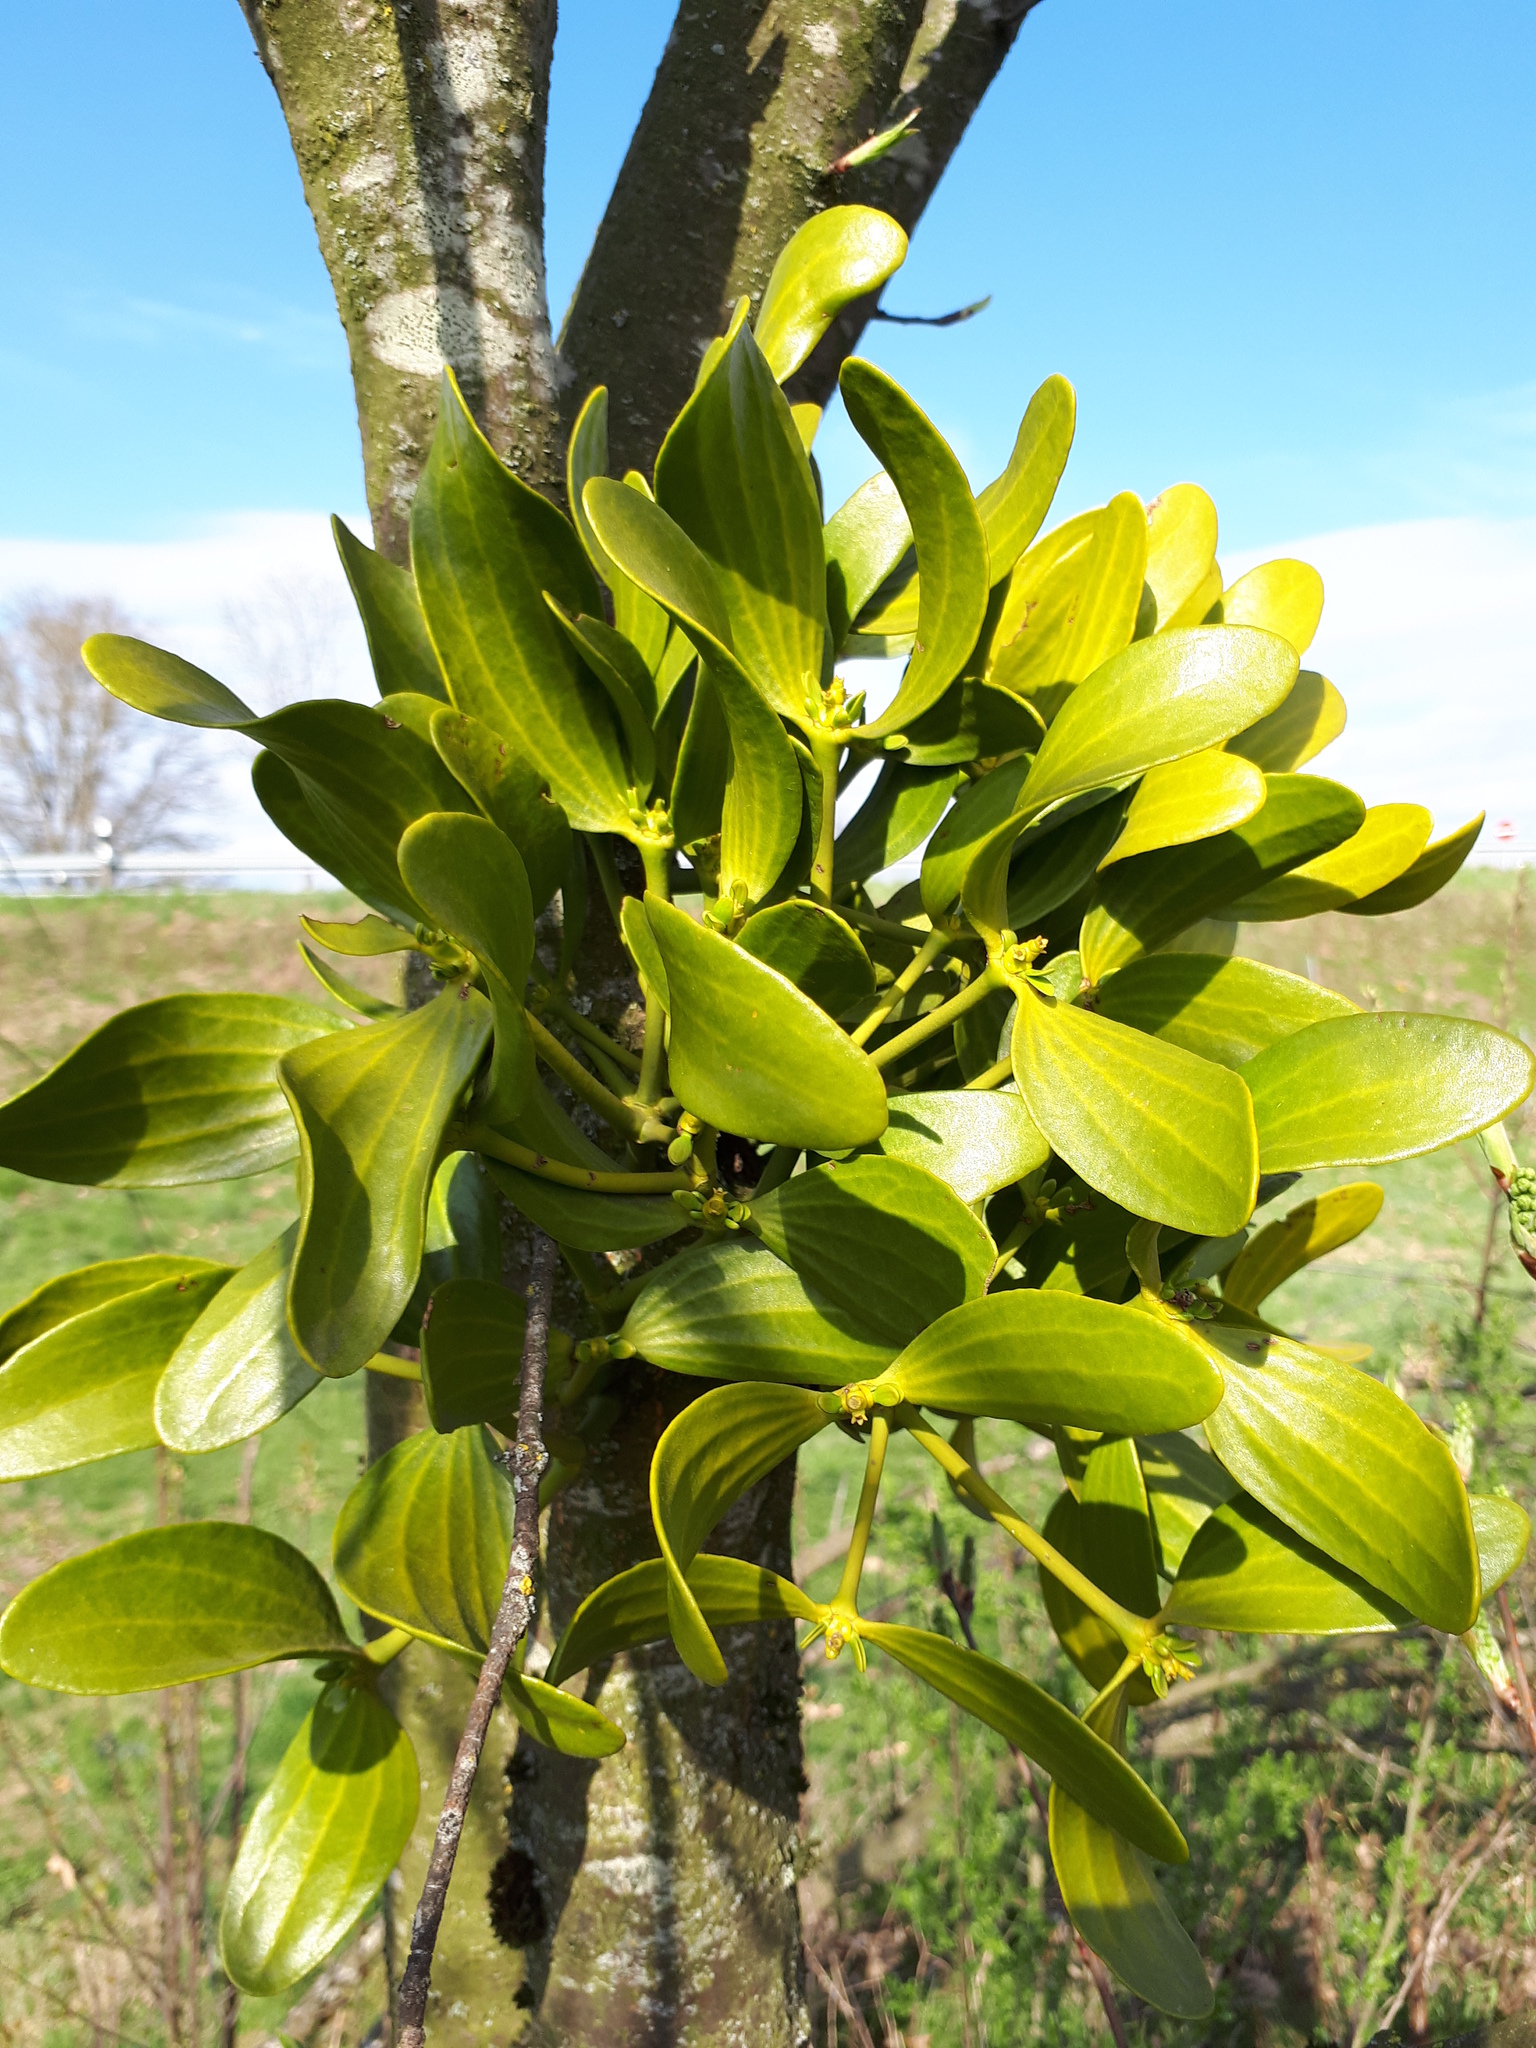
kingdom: Plantae
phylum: Tracheophyta
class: Magnoliopsida
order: Santalales
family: Viscaceae
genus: Viscum
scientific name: Viscum album
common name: Mistletoe
